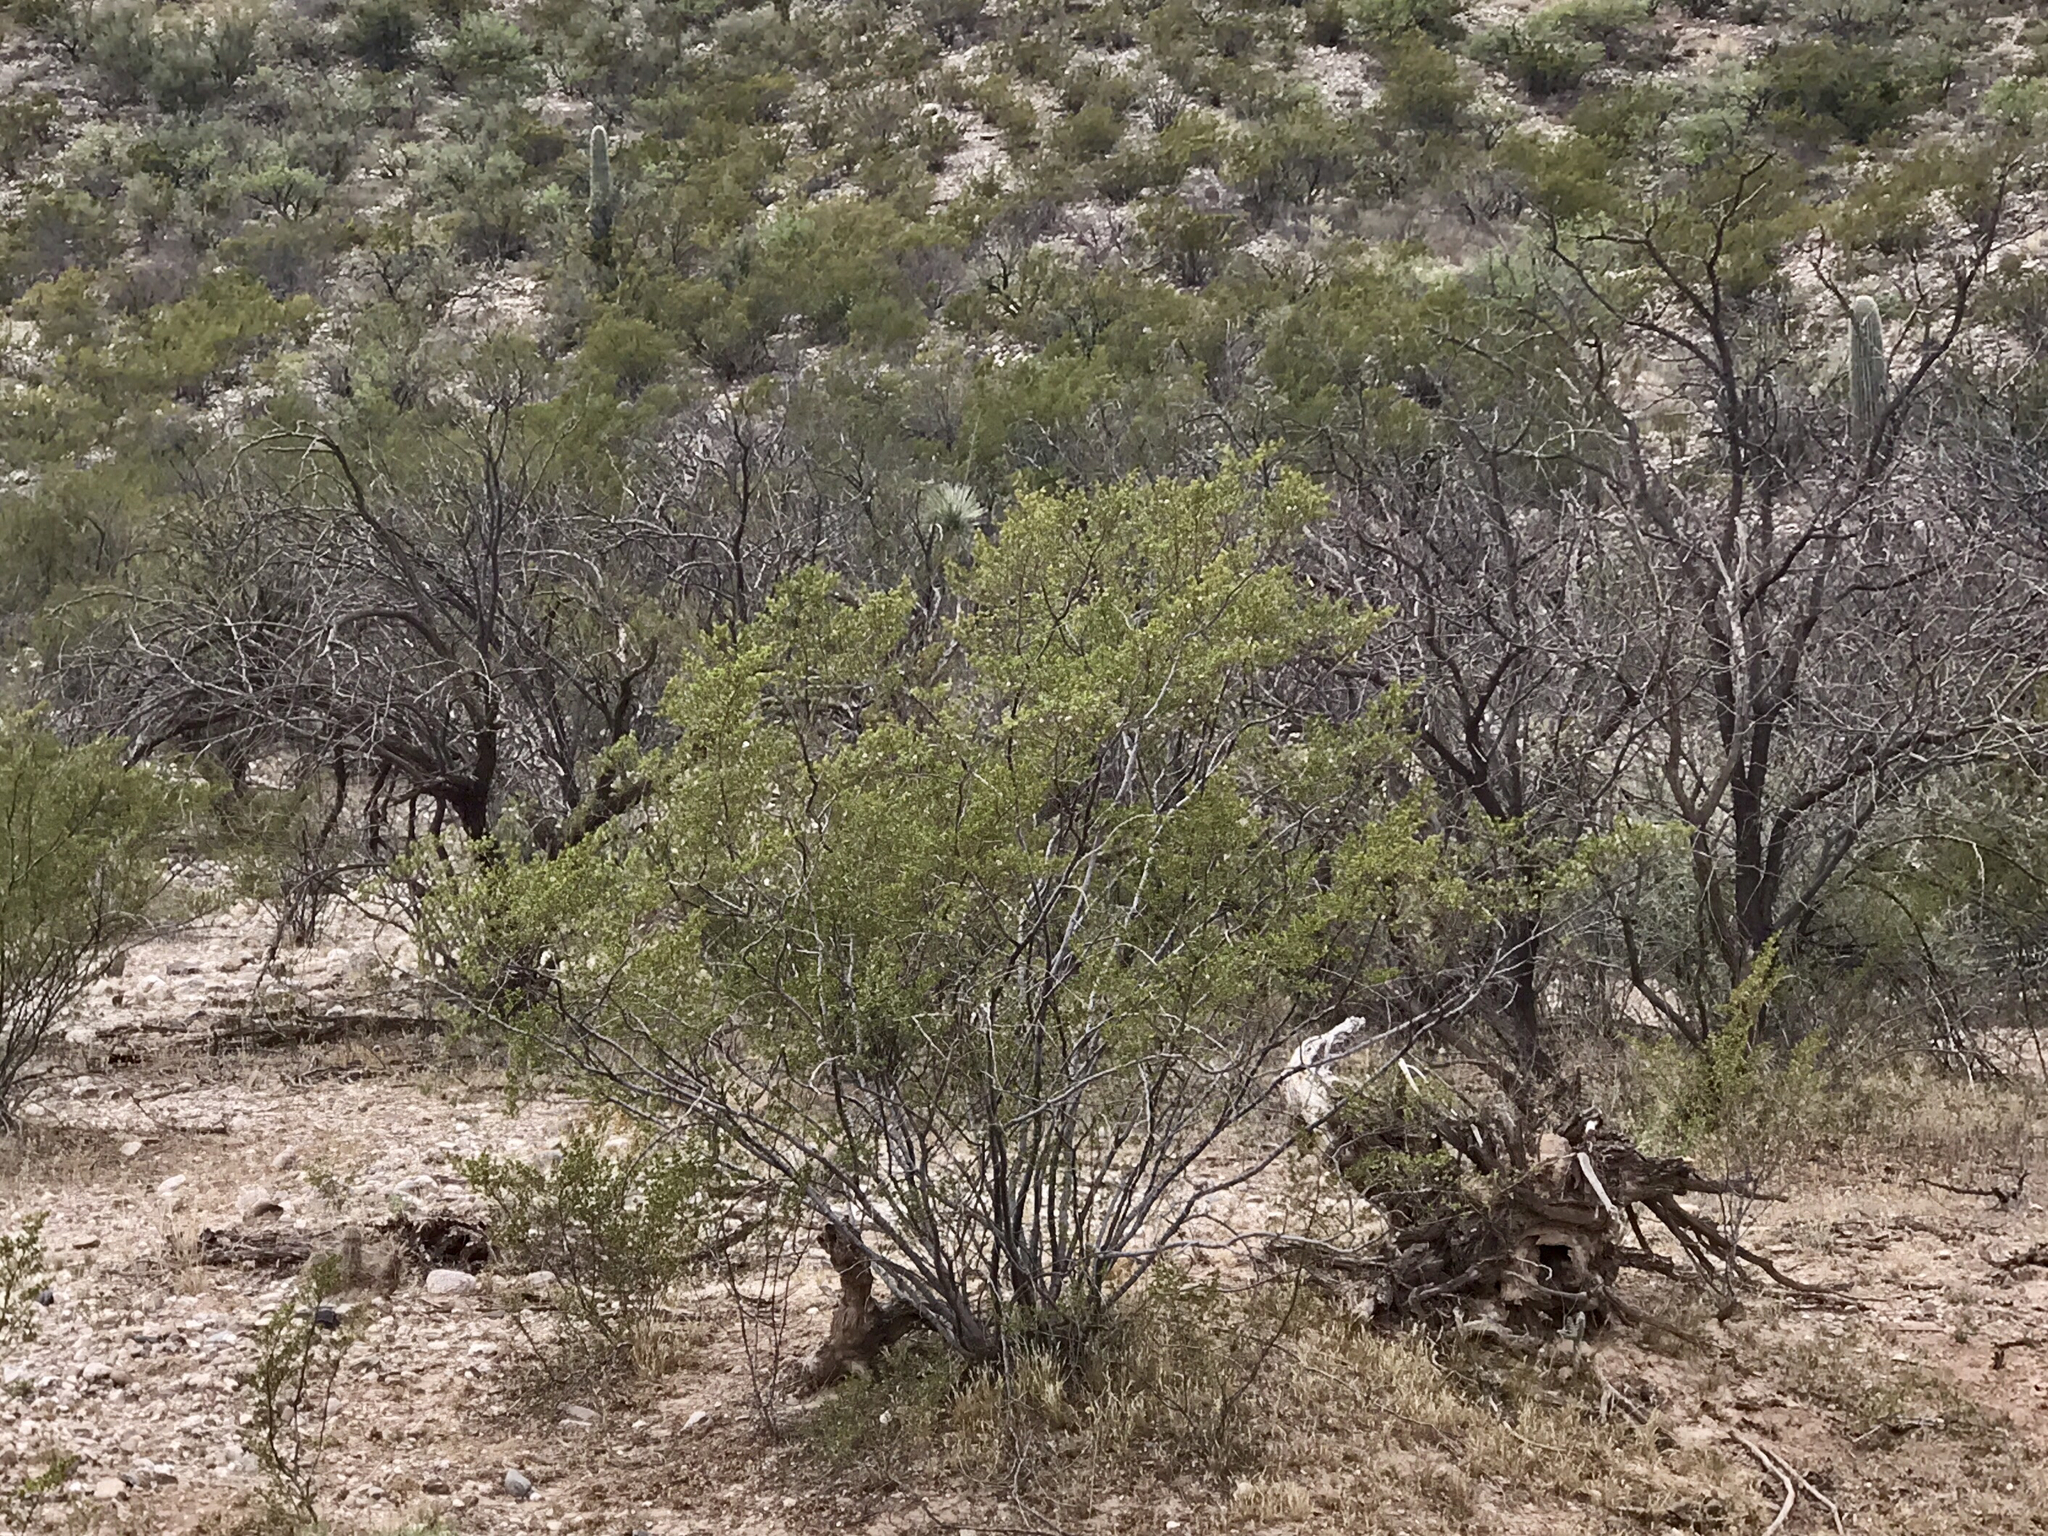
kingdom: Plantae
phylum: Tracheophyta
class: Magnoliopsida
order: Zygophyllales
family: Zygophyllaceae
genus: Larrea
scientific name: Larrea tridentata
